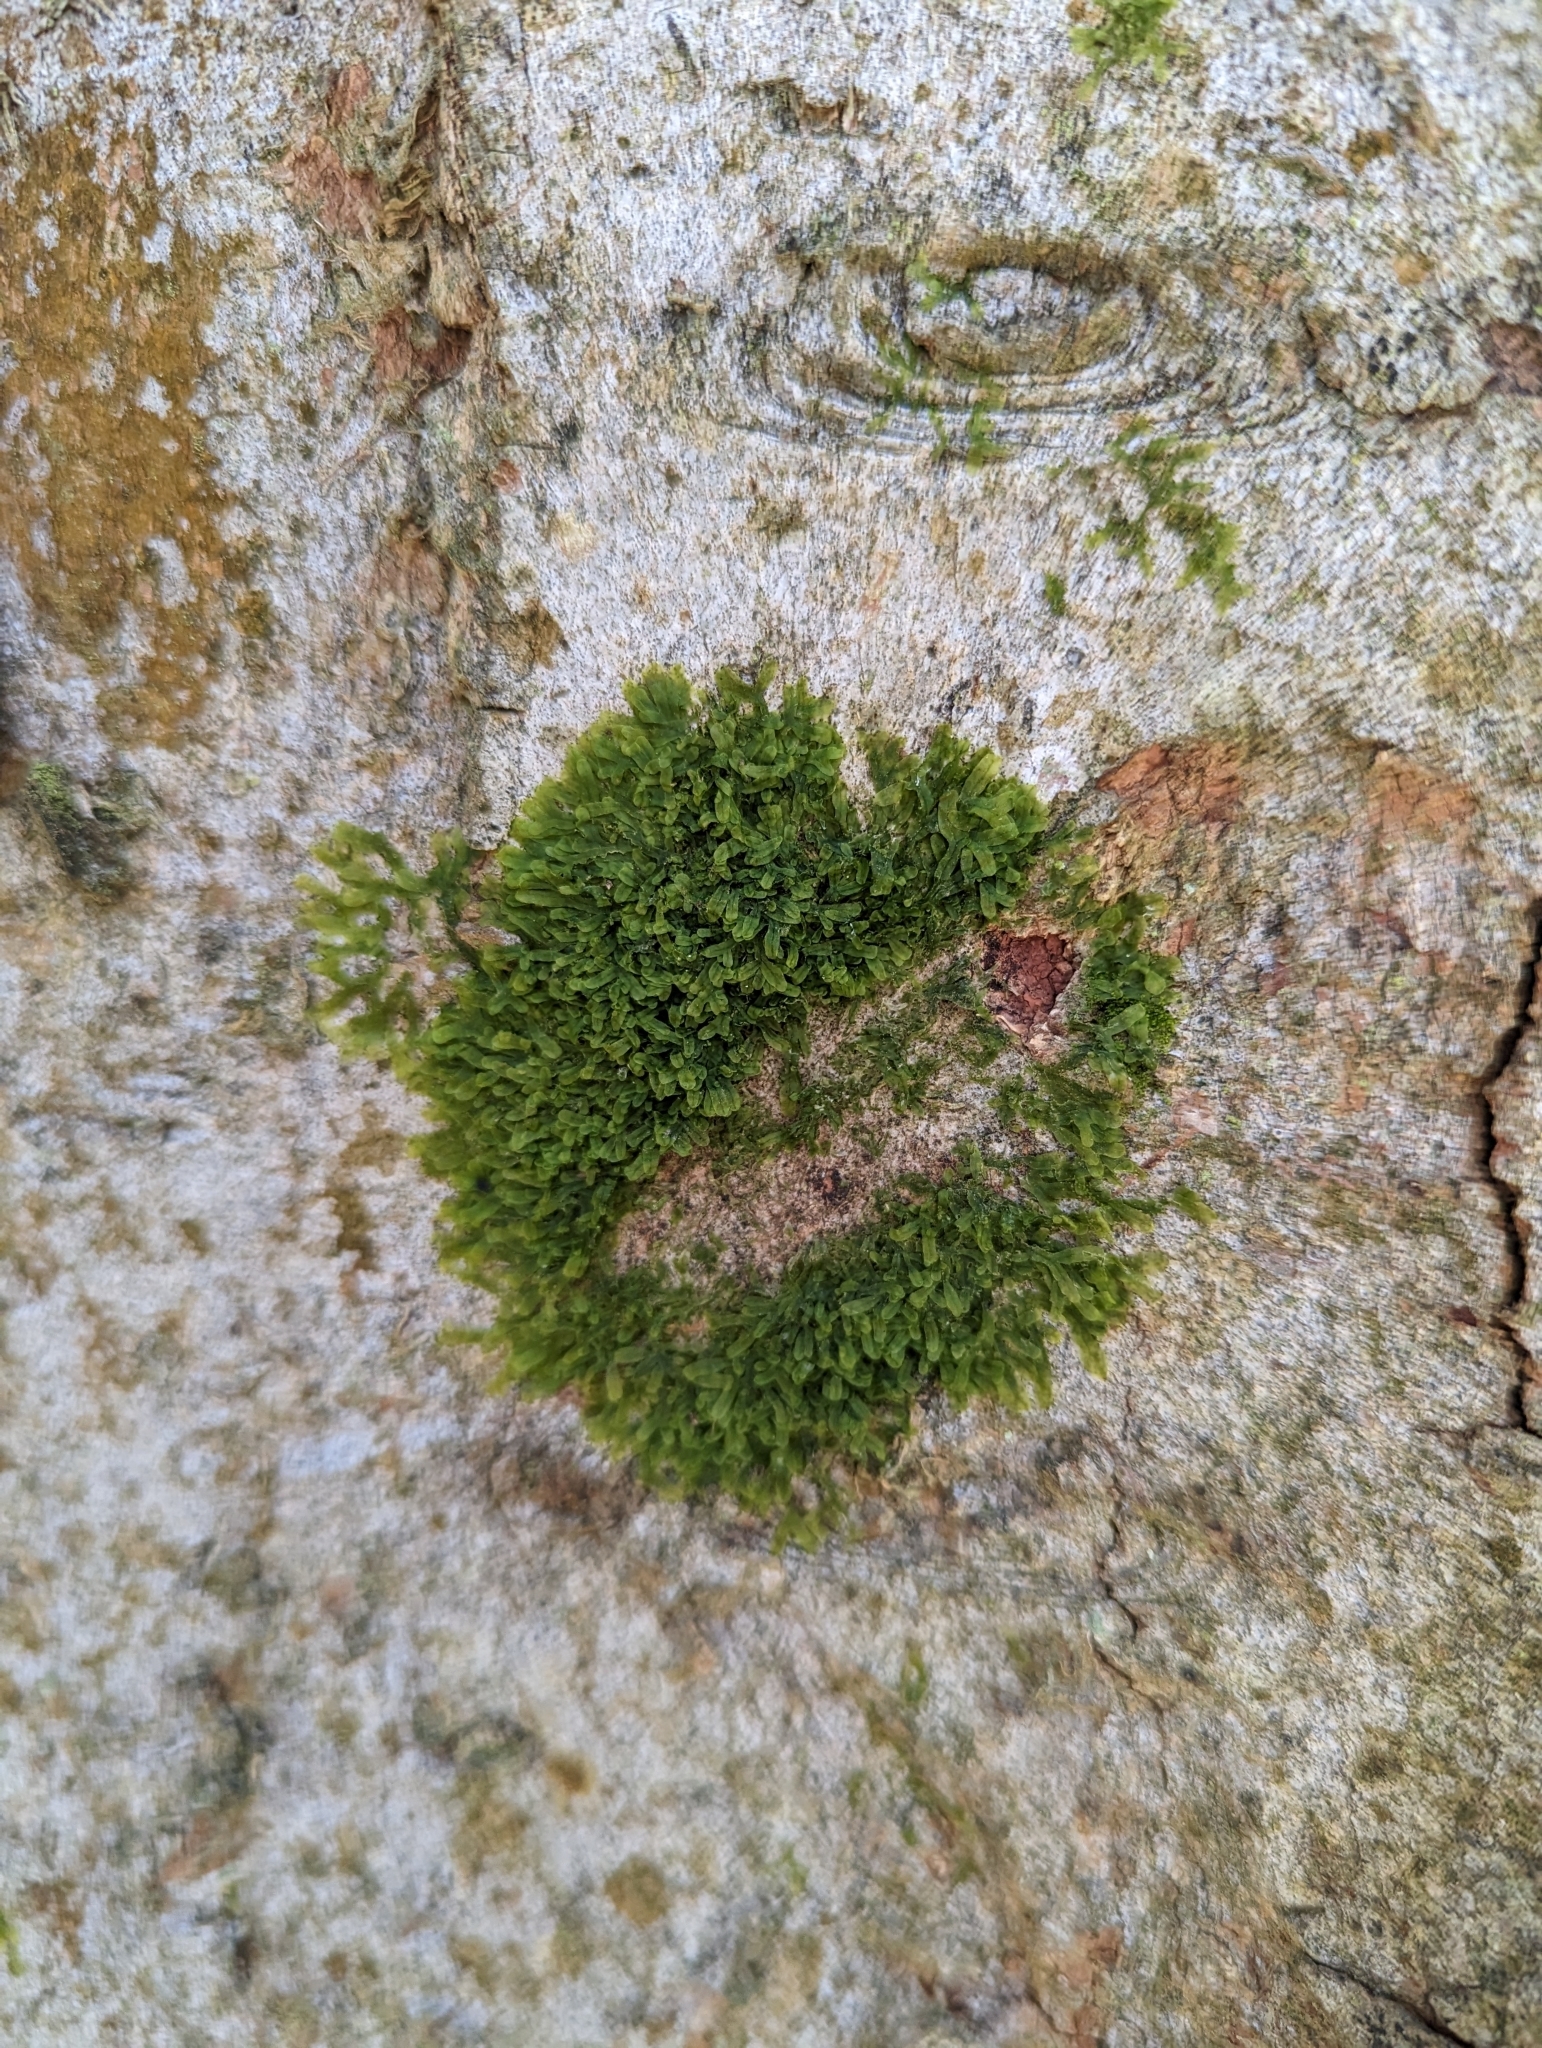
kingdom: Plantae
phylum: Marchantiophyta
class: Jungermanniopsida
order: Metzgeriales
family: Metzgeriaceae
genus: Metzgeria
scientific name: Metzgeria furcata
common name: Forked veilwort
